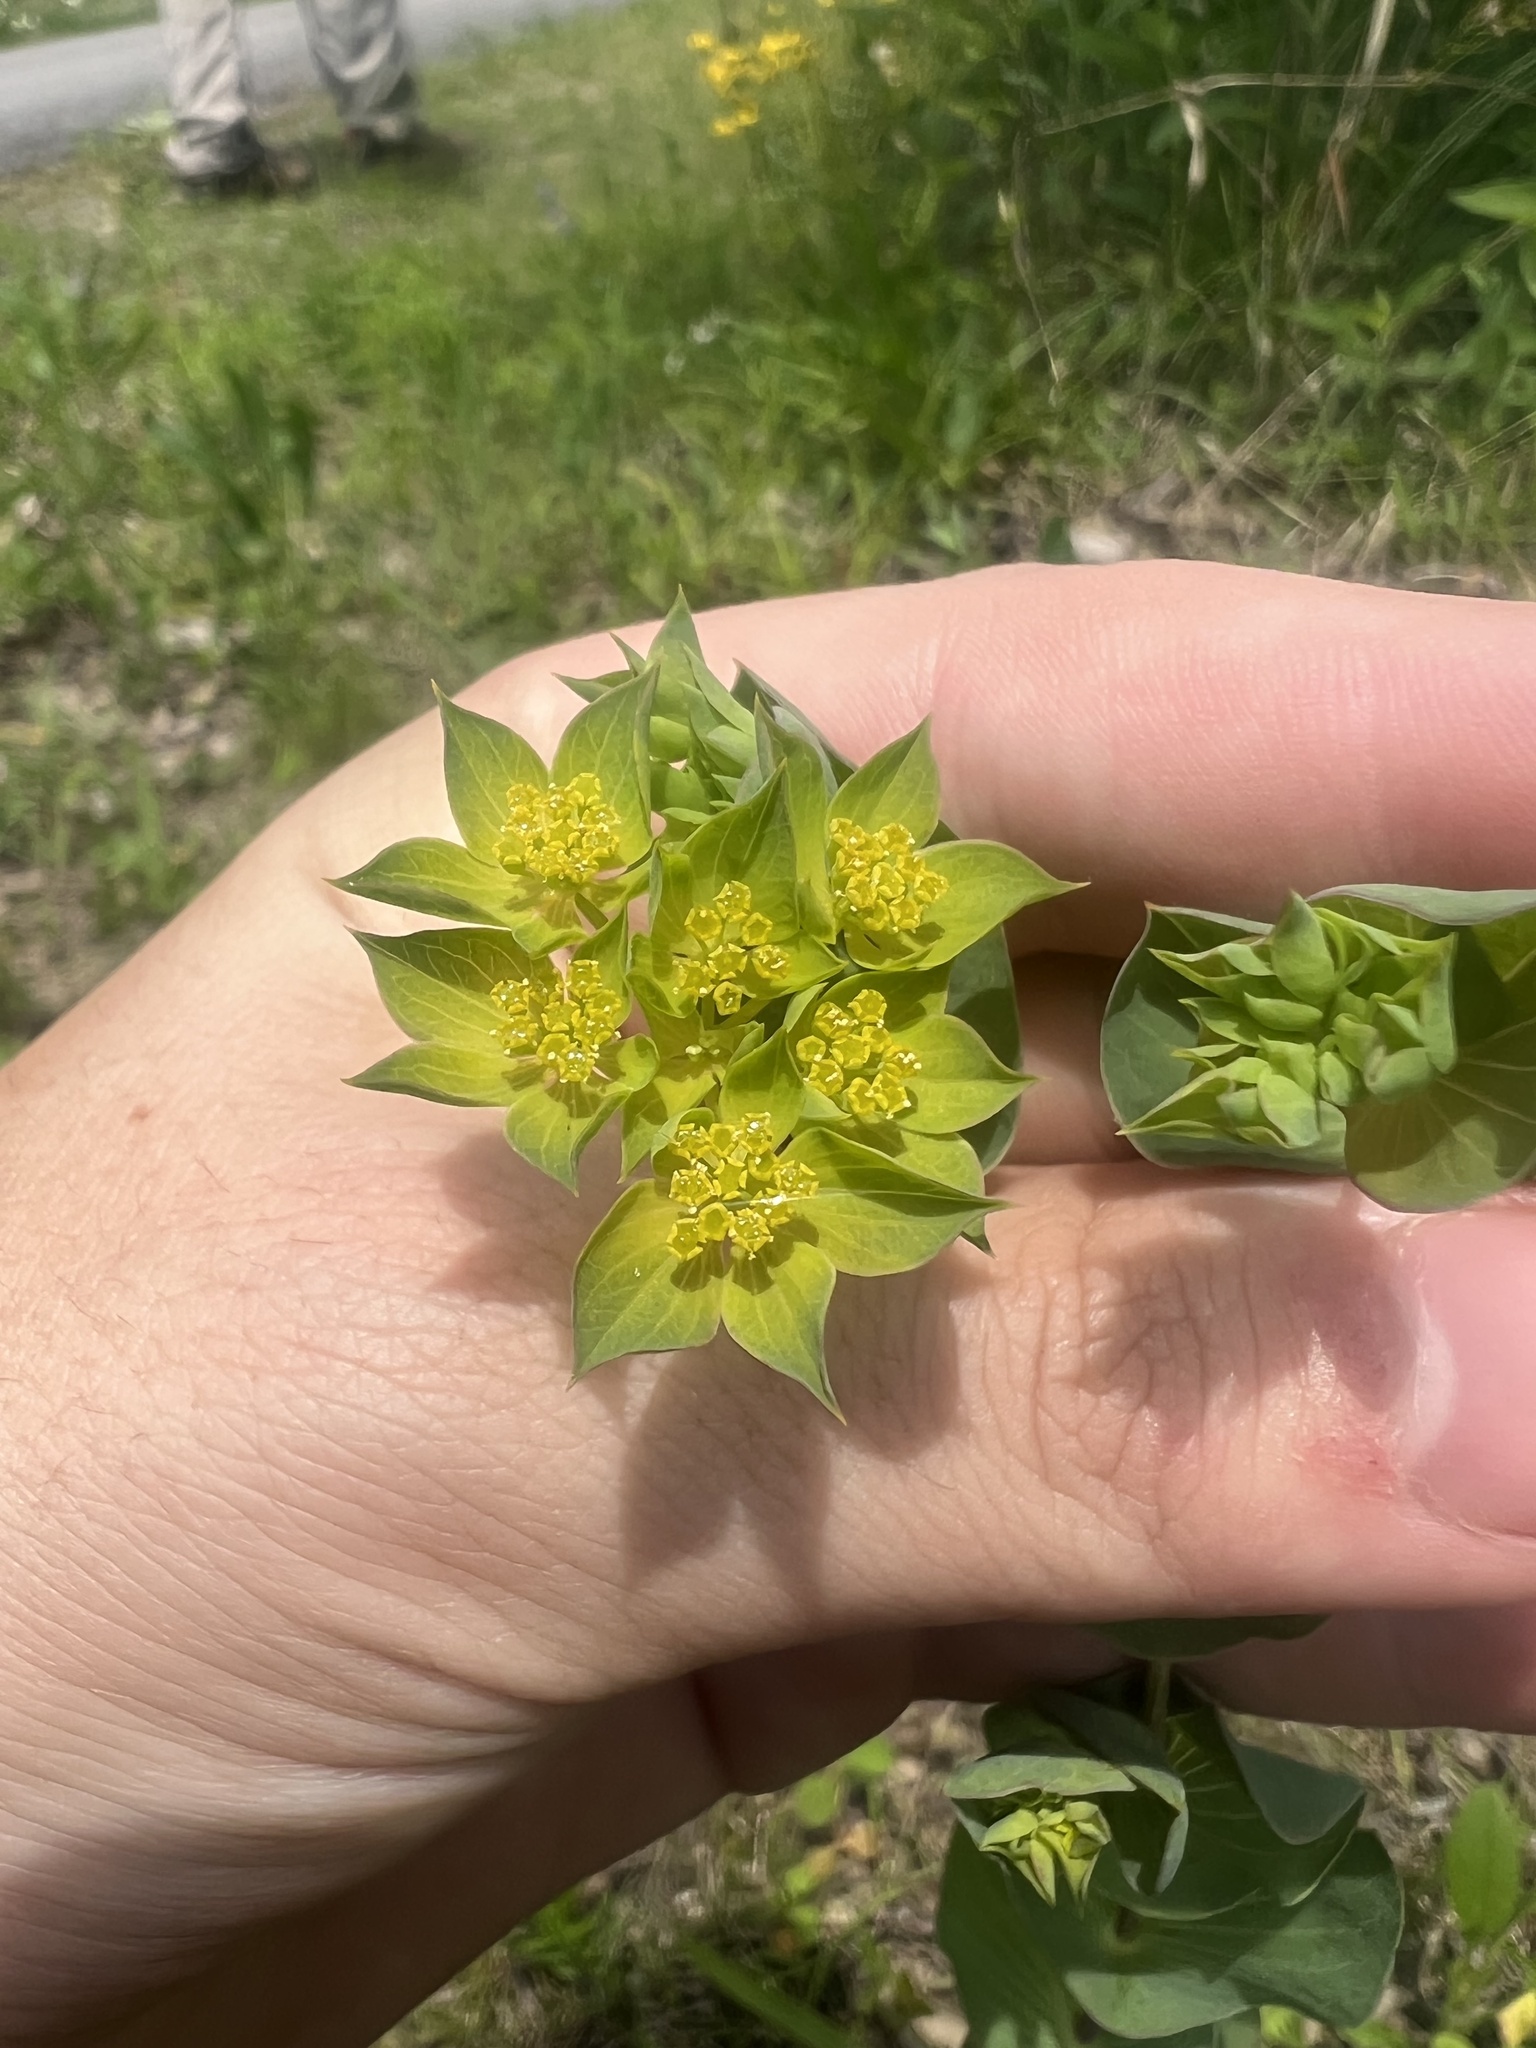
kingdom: Plantae
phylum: Tracheophyta
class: Magnoliopsida
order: Apiales
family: Apiaceae
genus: Bupleurum
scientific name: Bupleurum rotundifolium
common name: Thorow-wax
